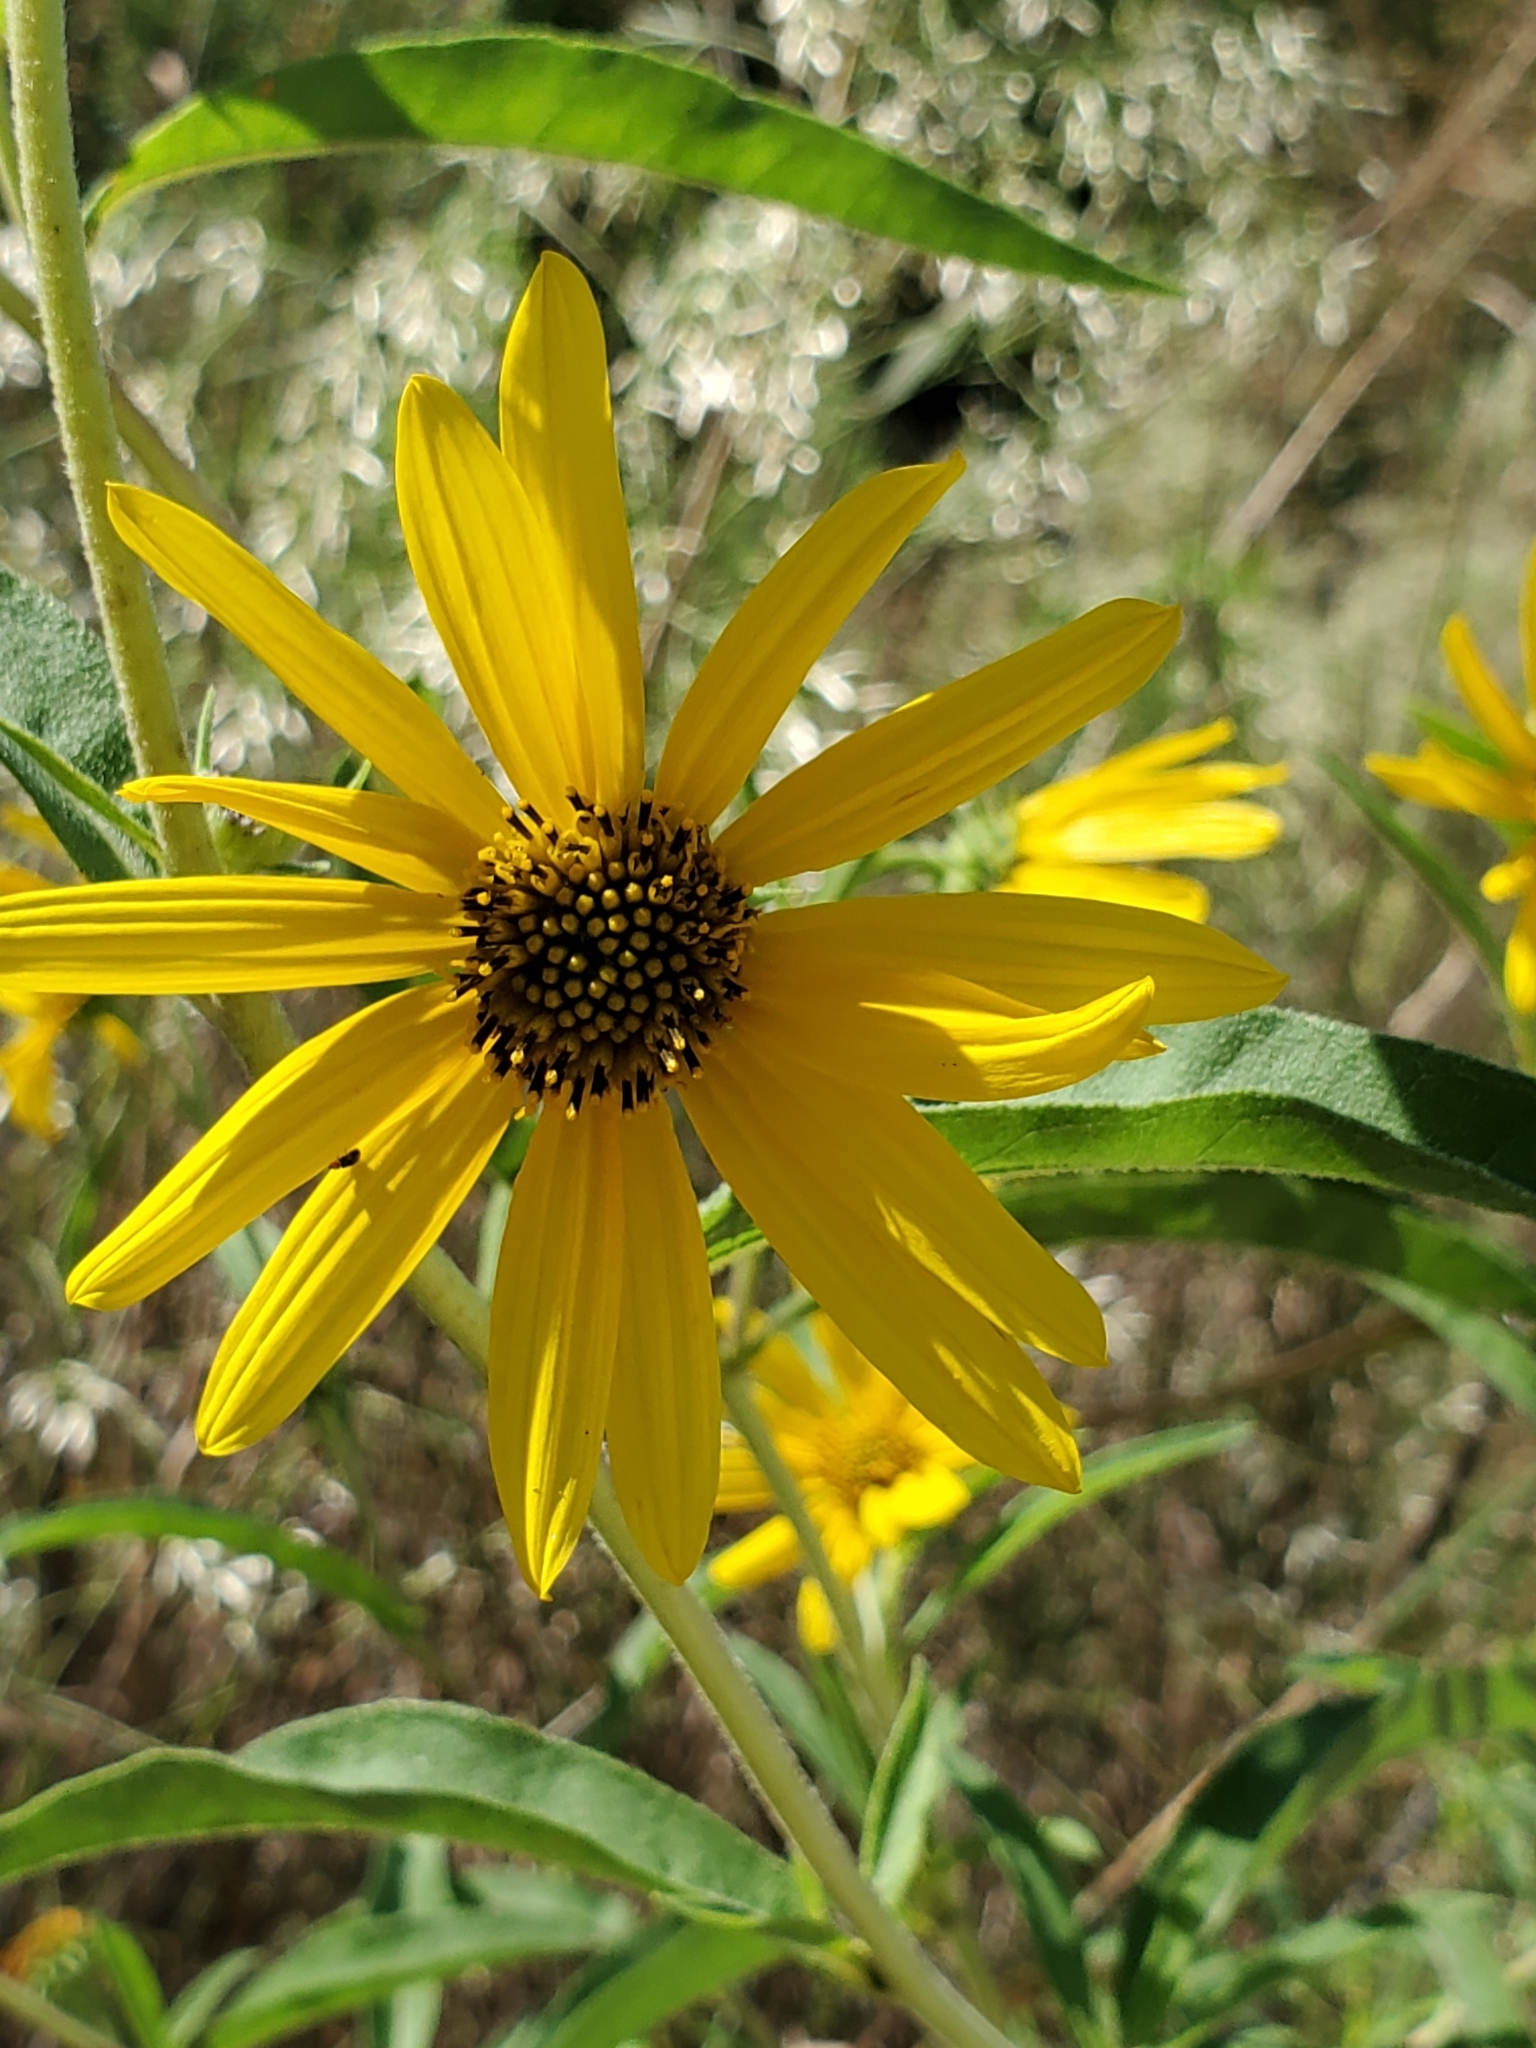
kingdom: Plantae
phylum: Tracheophyta
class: Magnoliopsida
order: Asterales
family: Asteraceae
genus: Helianthus
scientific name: Helianthus maximiliani
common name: Maximilian's sunflower
